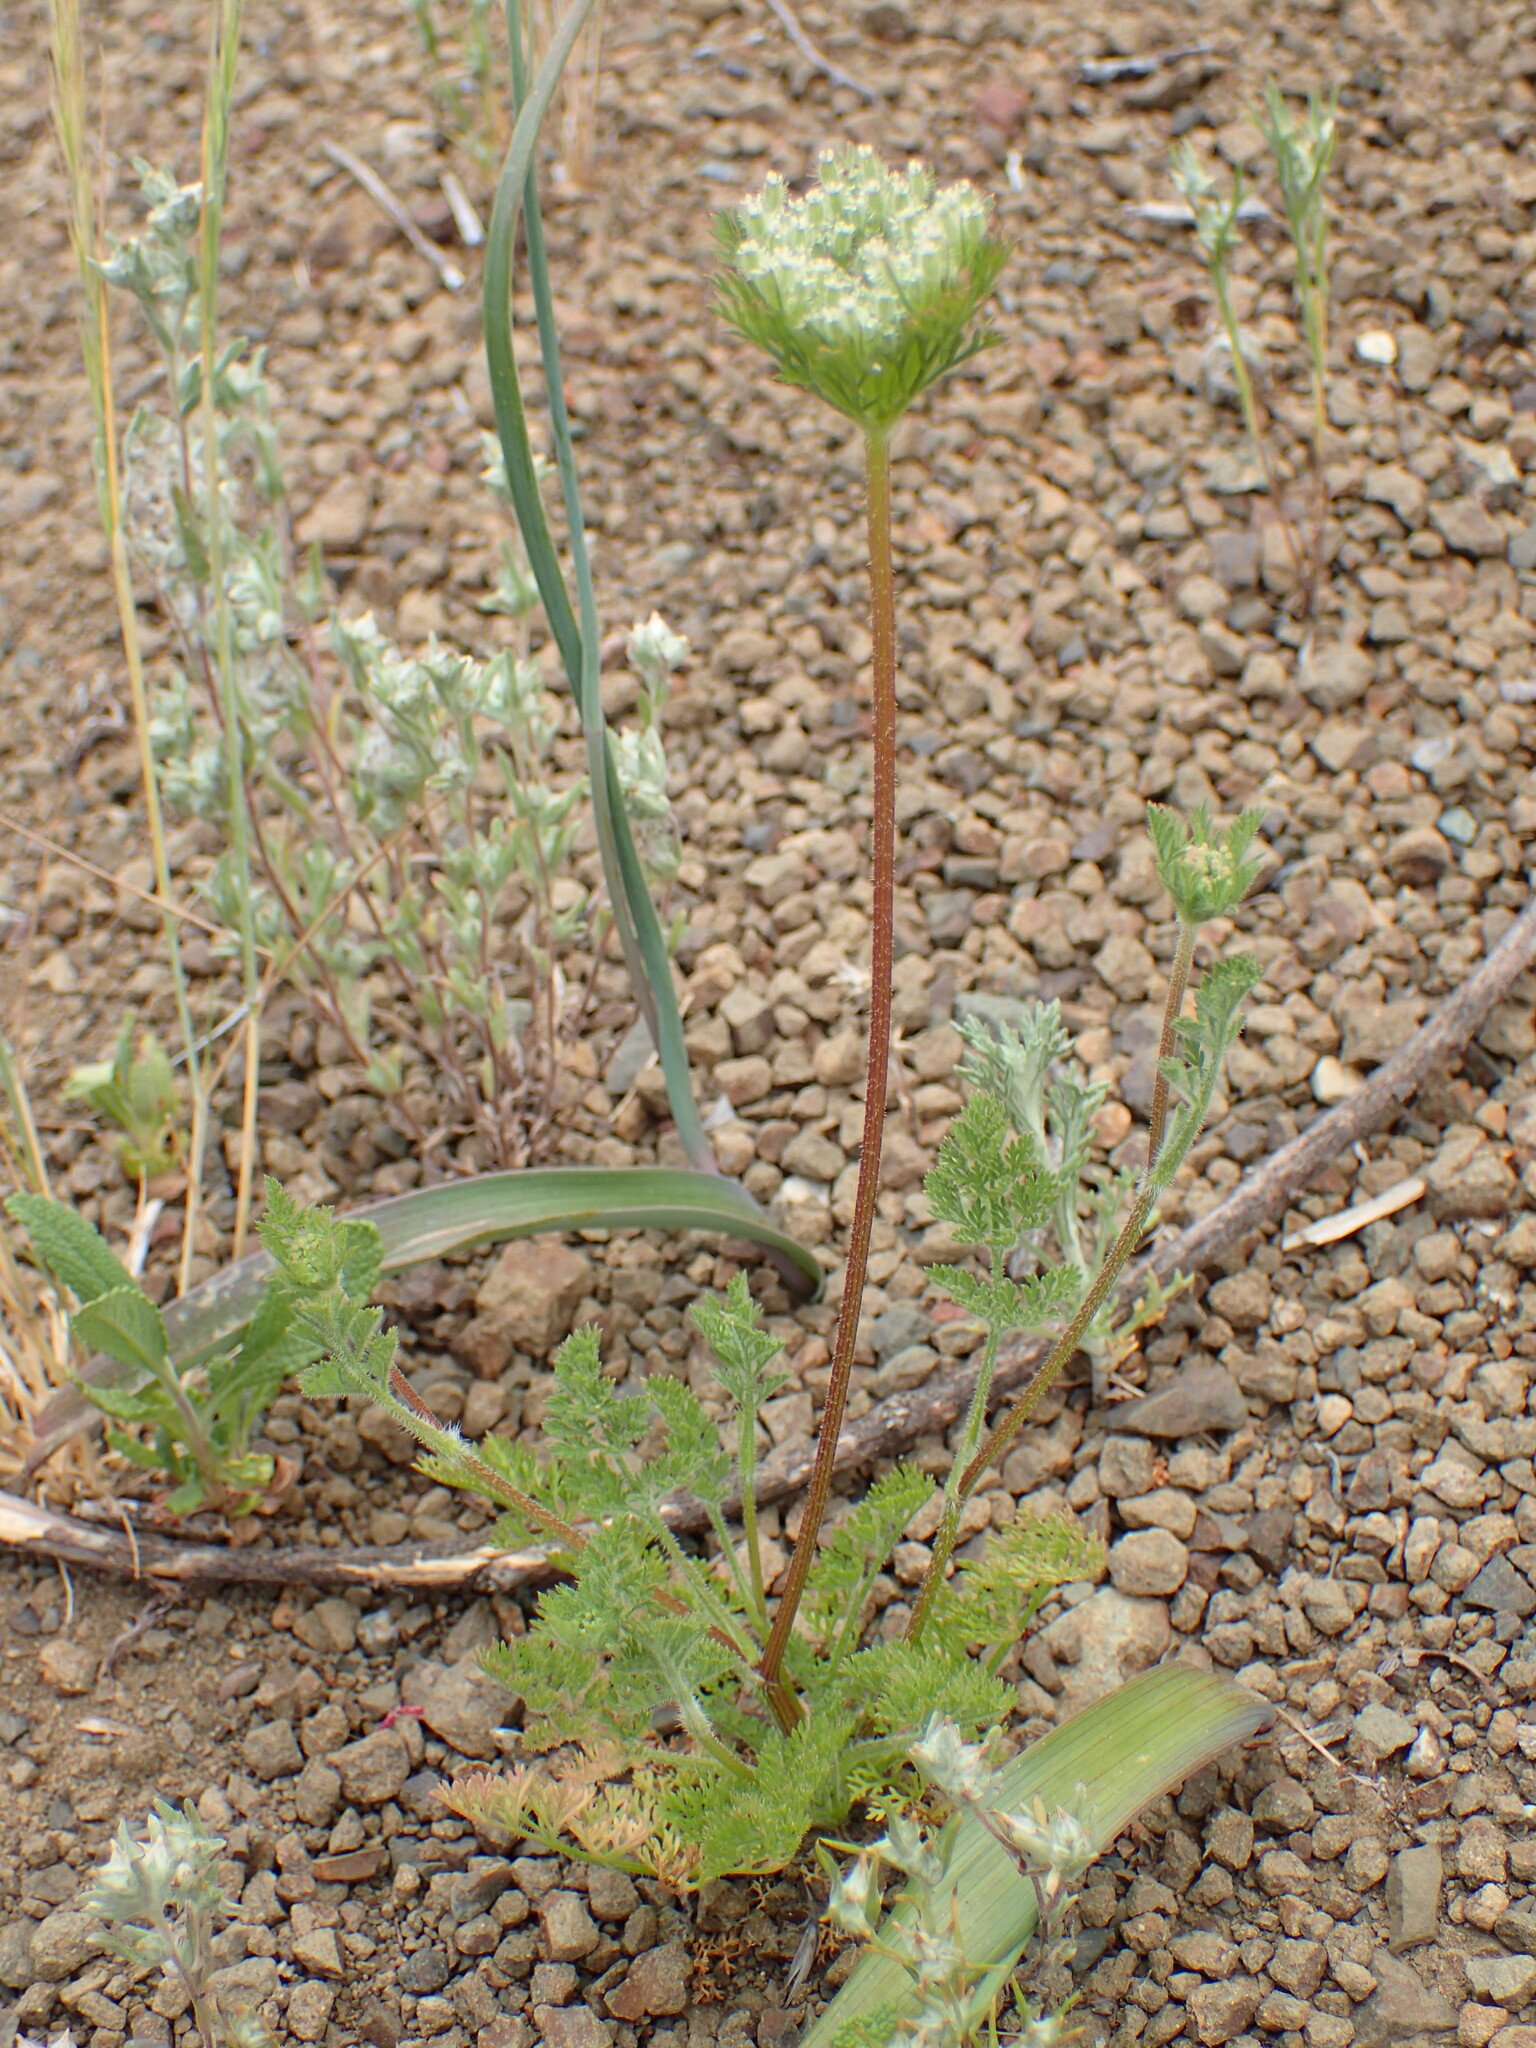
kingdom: Plantae
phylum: Tracheophyta
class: Magnoliopsida
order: Apiales
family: Apiaceae
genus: Daucus
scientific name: Daucus pusillus
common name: Southwest wild carrot
